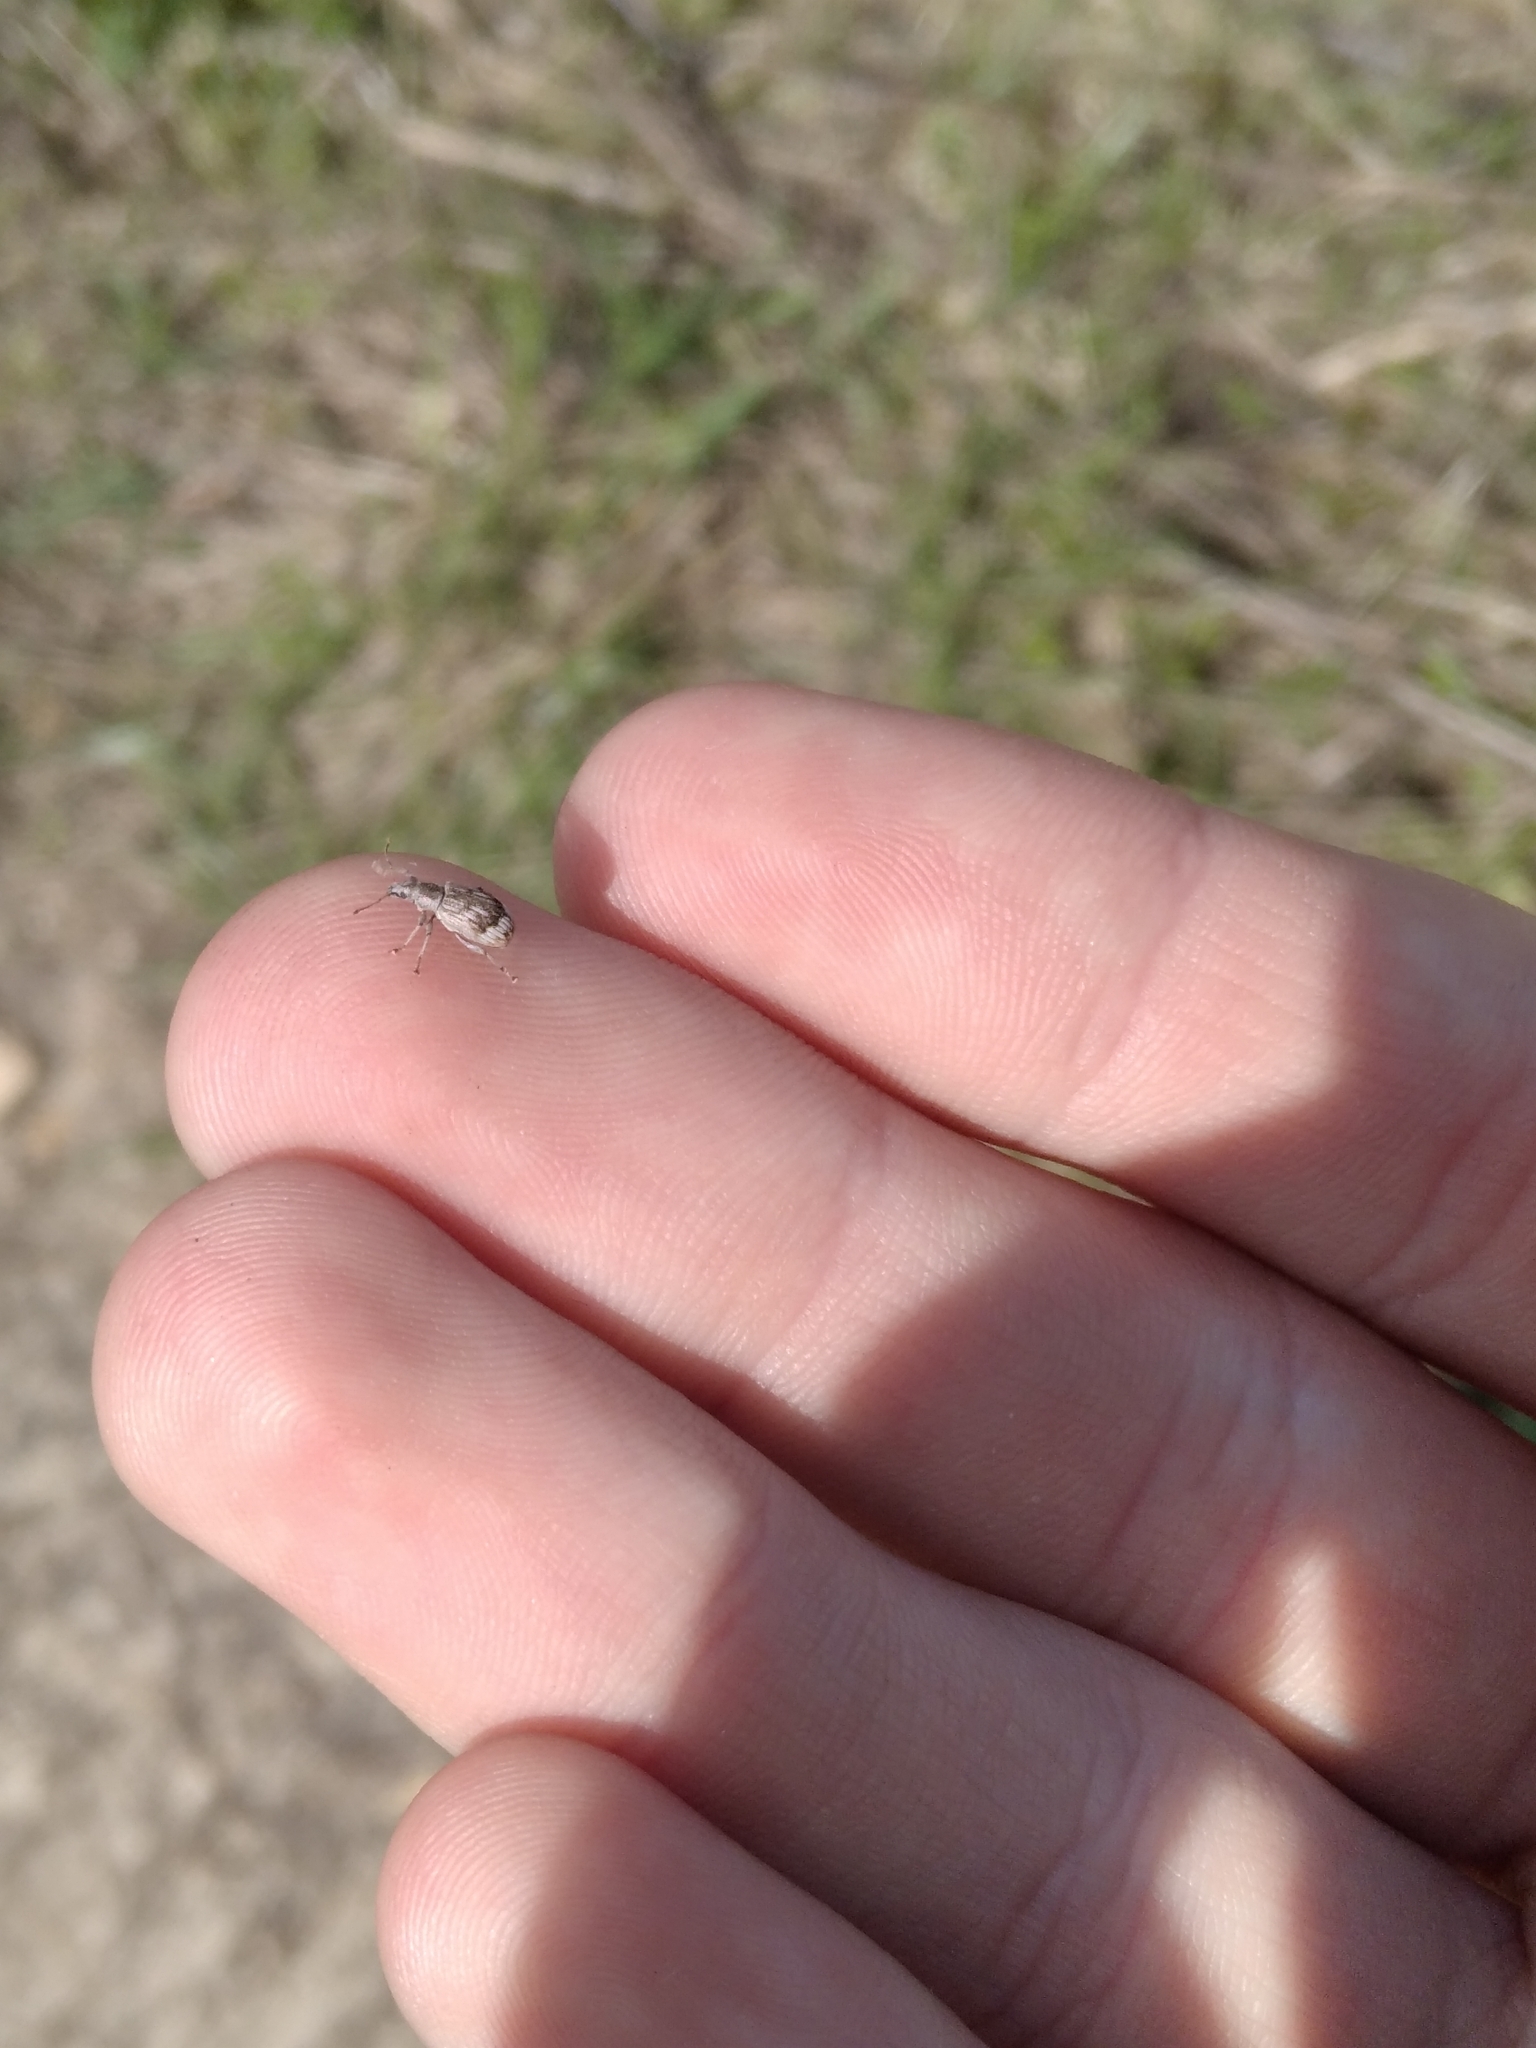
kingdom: Animalia
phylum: Arthropoda
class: Insecta
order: Coleoptera
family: Curculionidae
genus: Polydrusus
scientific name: Polydrusus tereticollis
